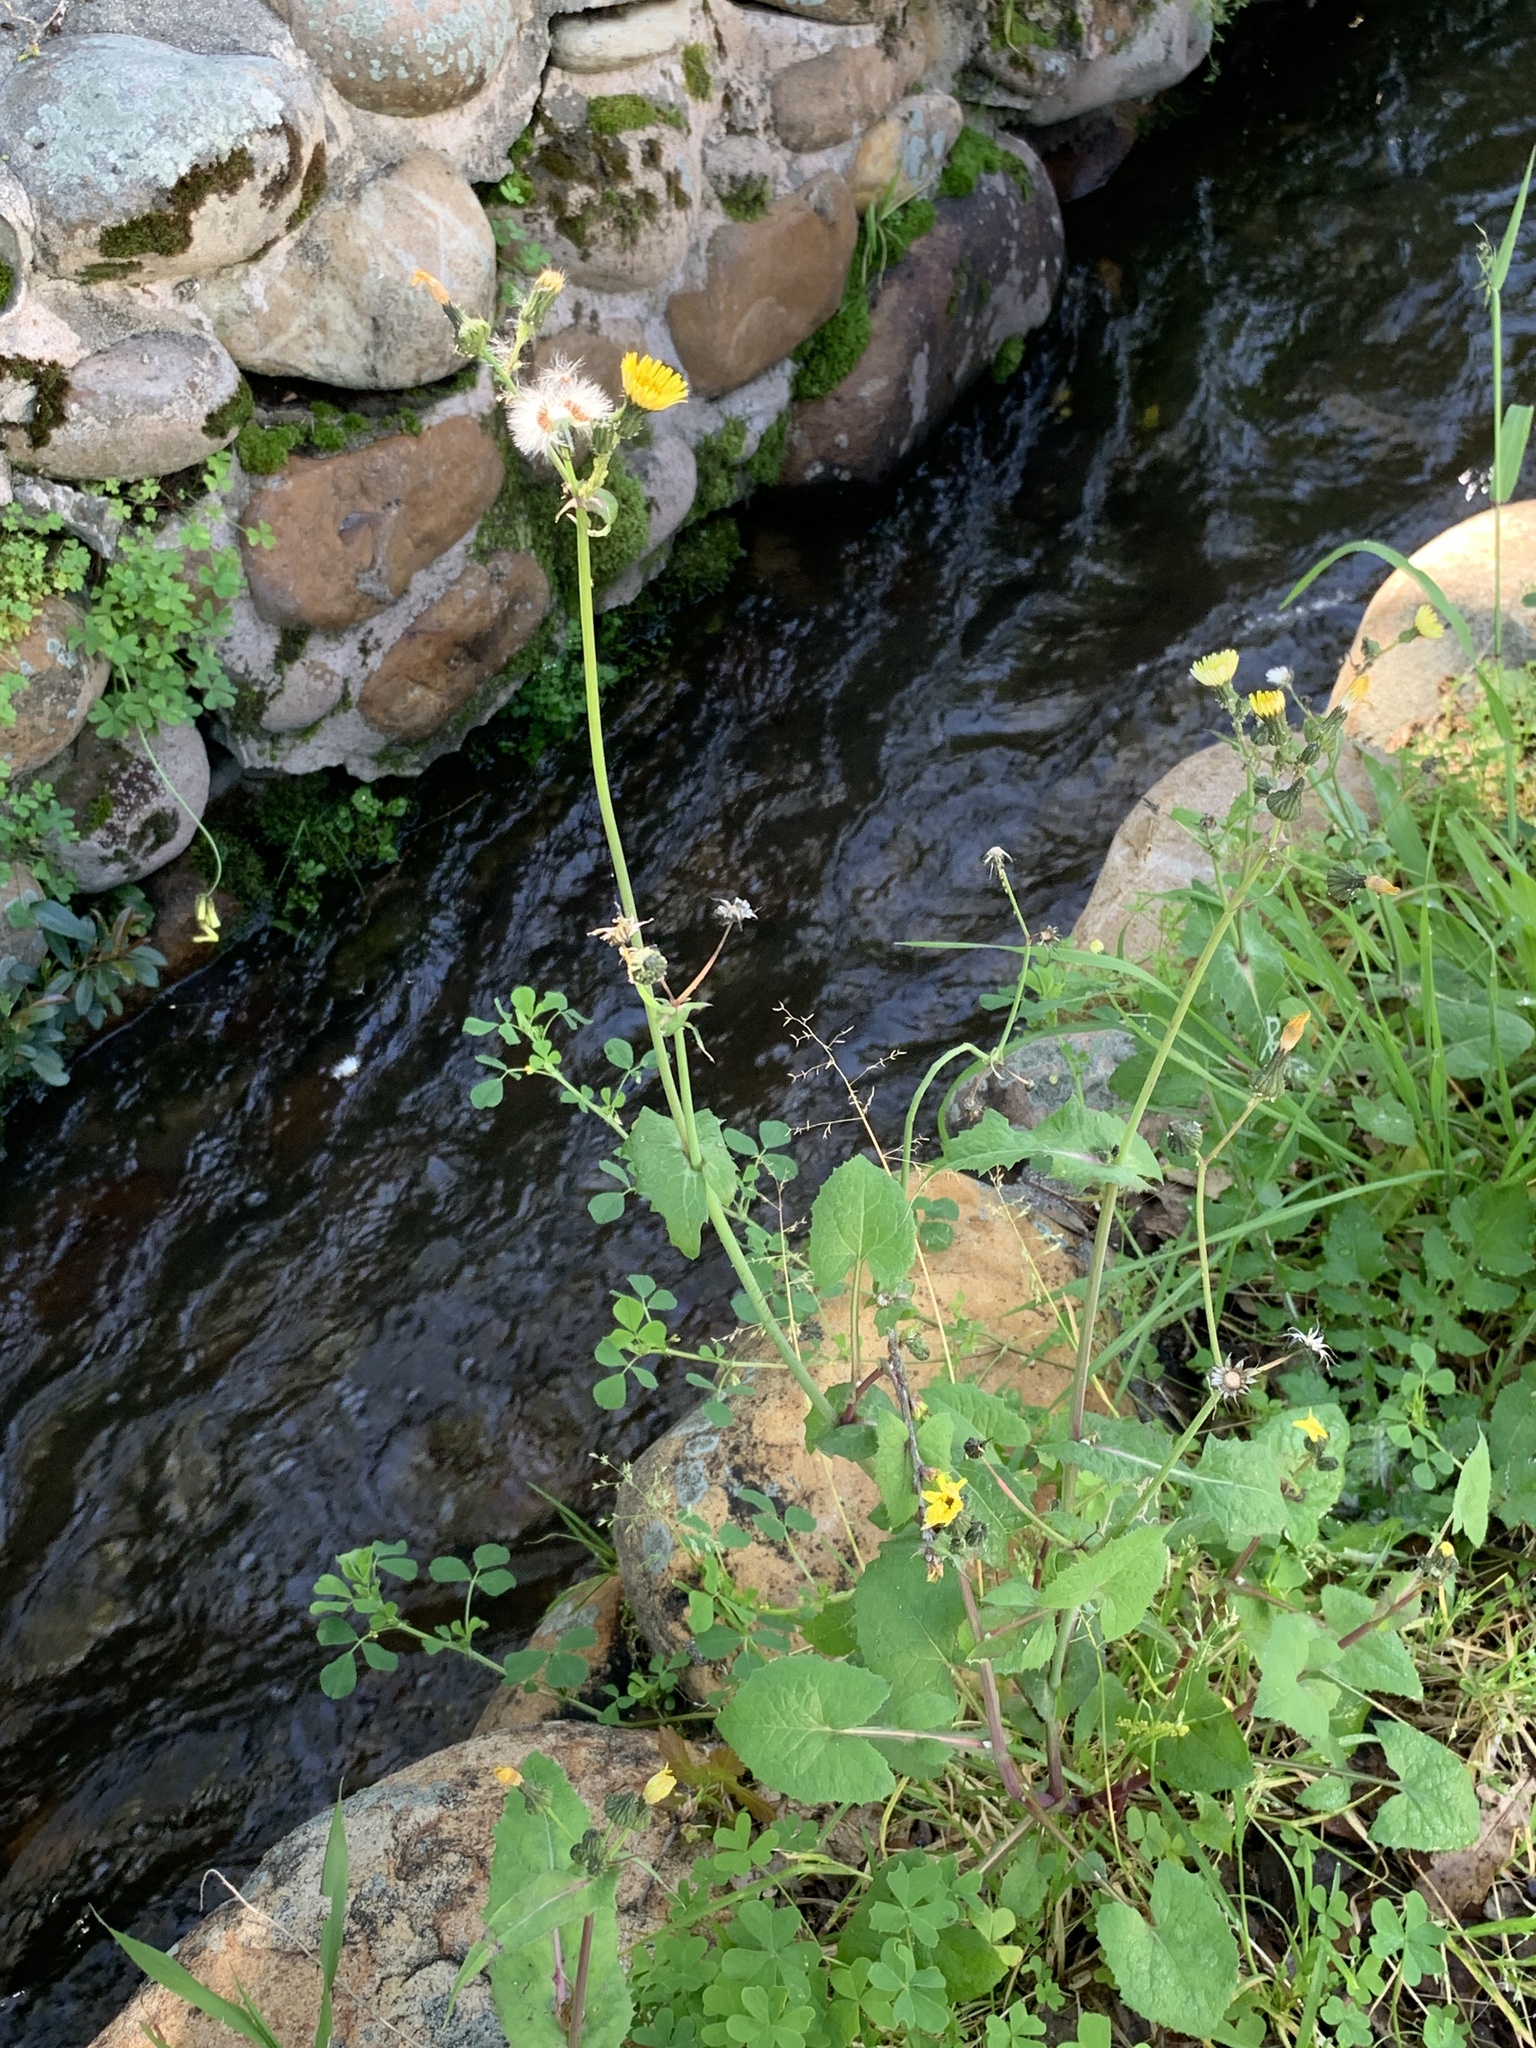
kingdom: Plantae
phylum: Tracheophyta
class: Magnoliopsida
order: Asterales
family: Asteraceae
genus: Sonchus
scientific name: Sonchus oleraceus
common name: Common sowthistle
